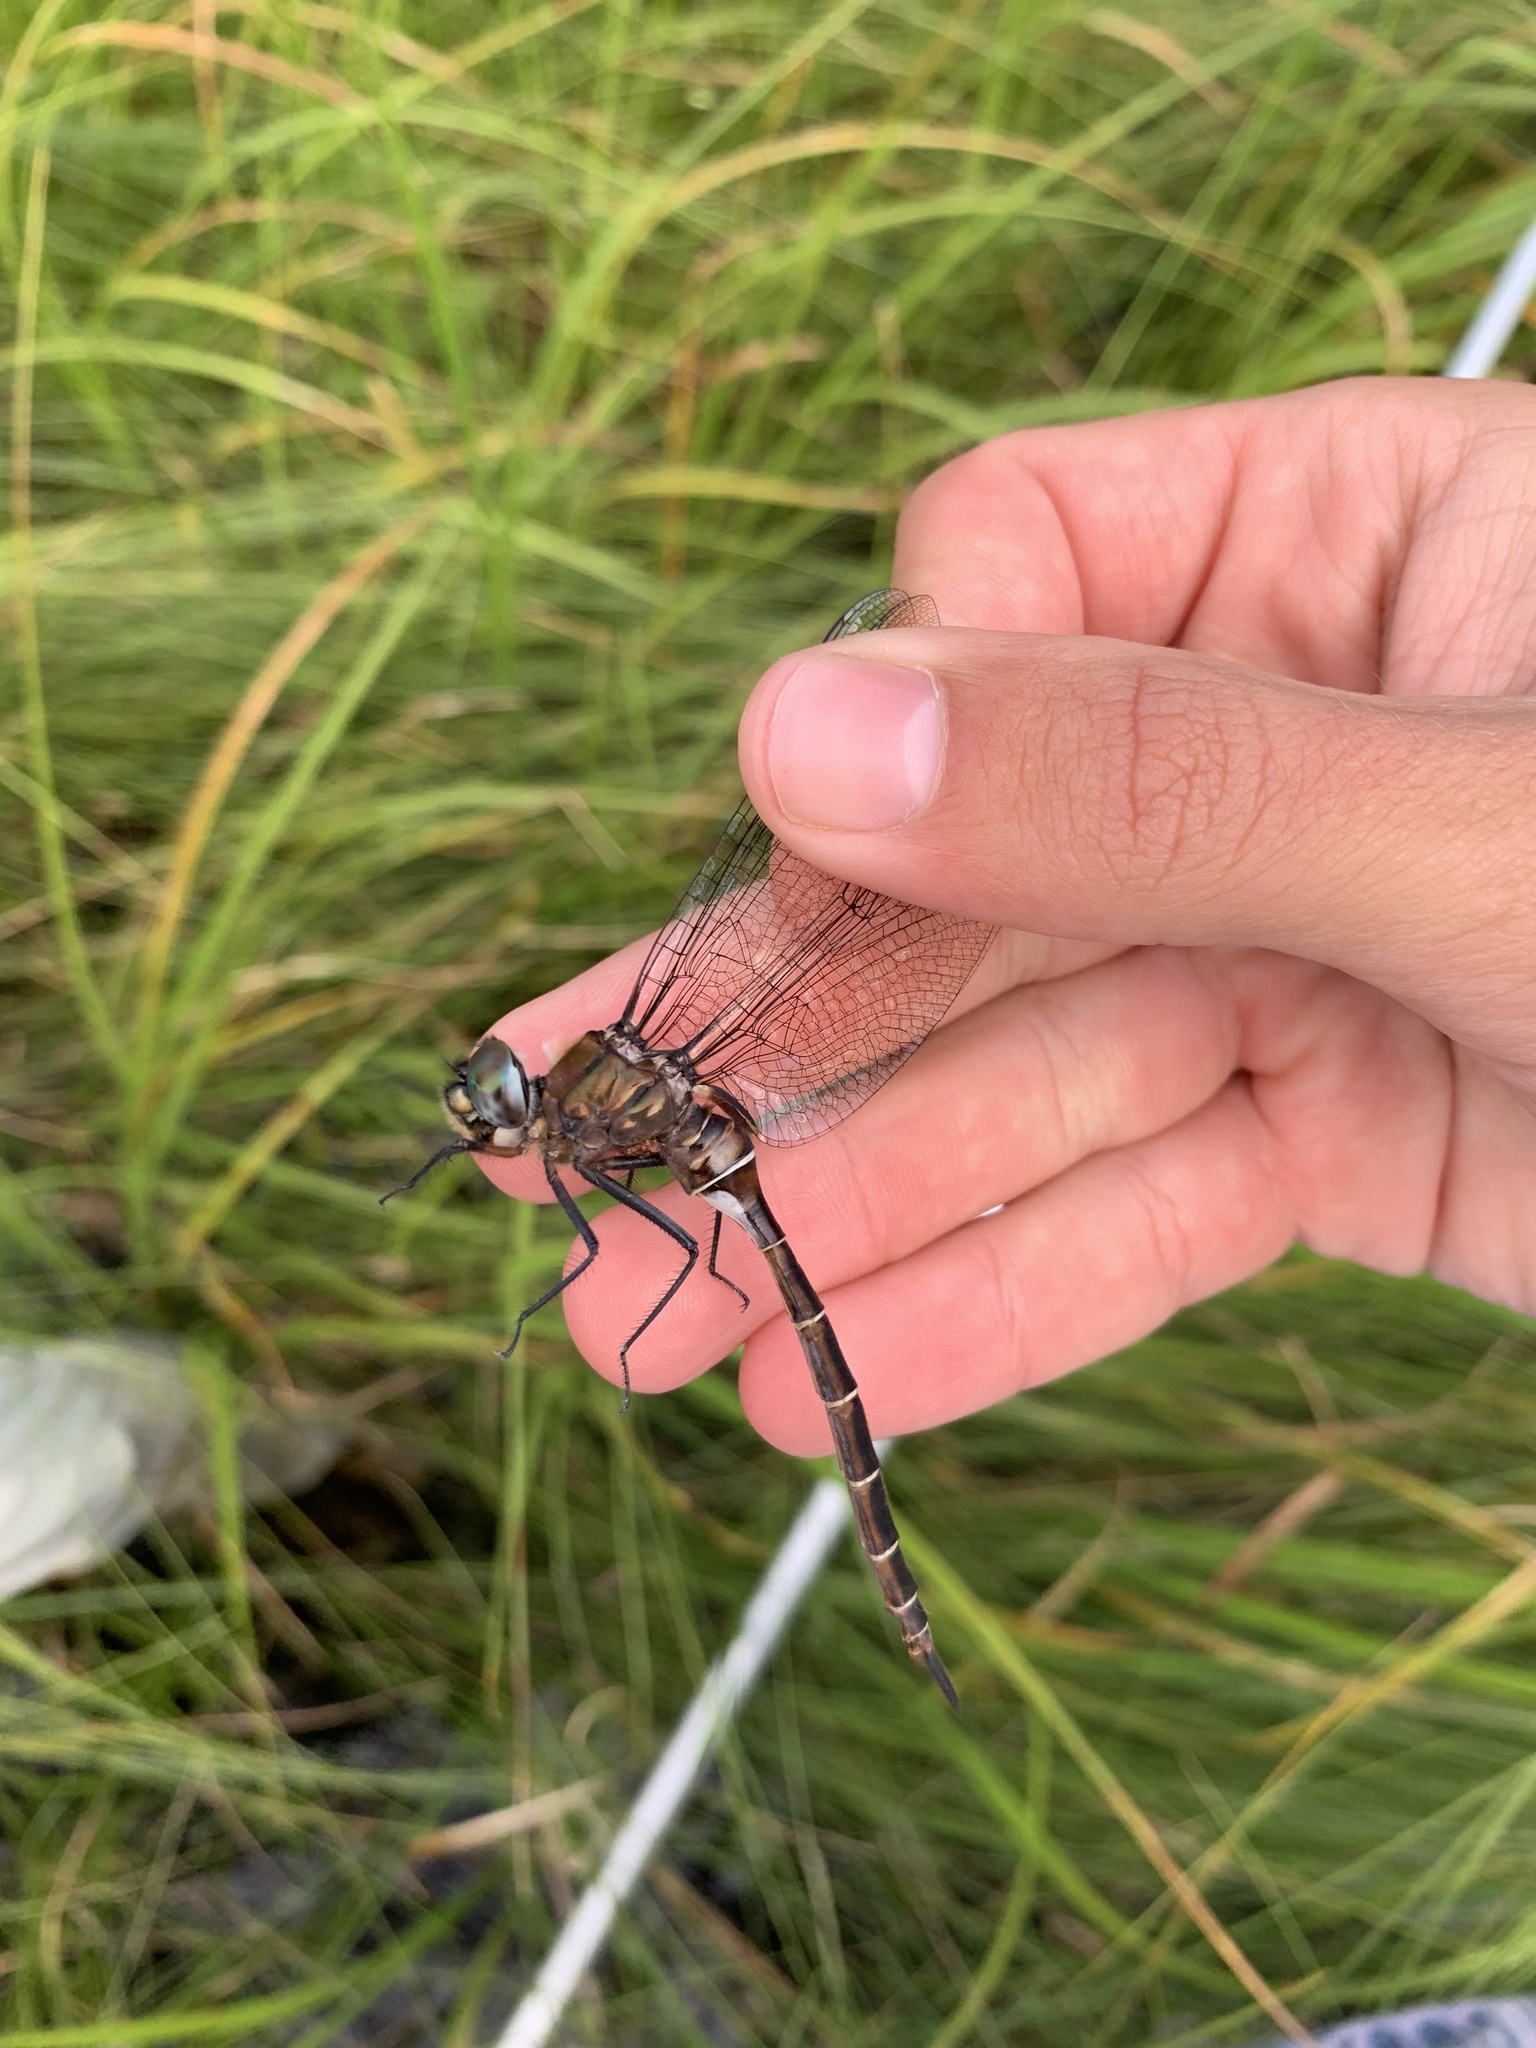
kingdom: Animalia
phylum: Arthropoda
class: Insecta
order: Odonata
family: Corduliidae
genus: Somatochlora
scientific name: Somatochlora cingulata
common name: Lake emerald
